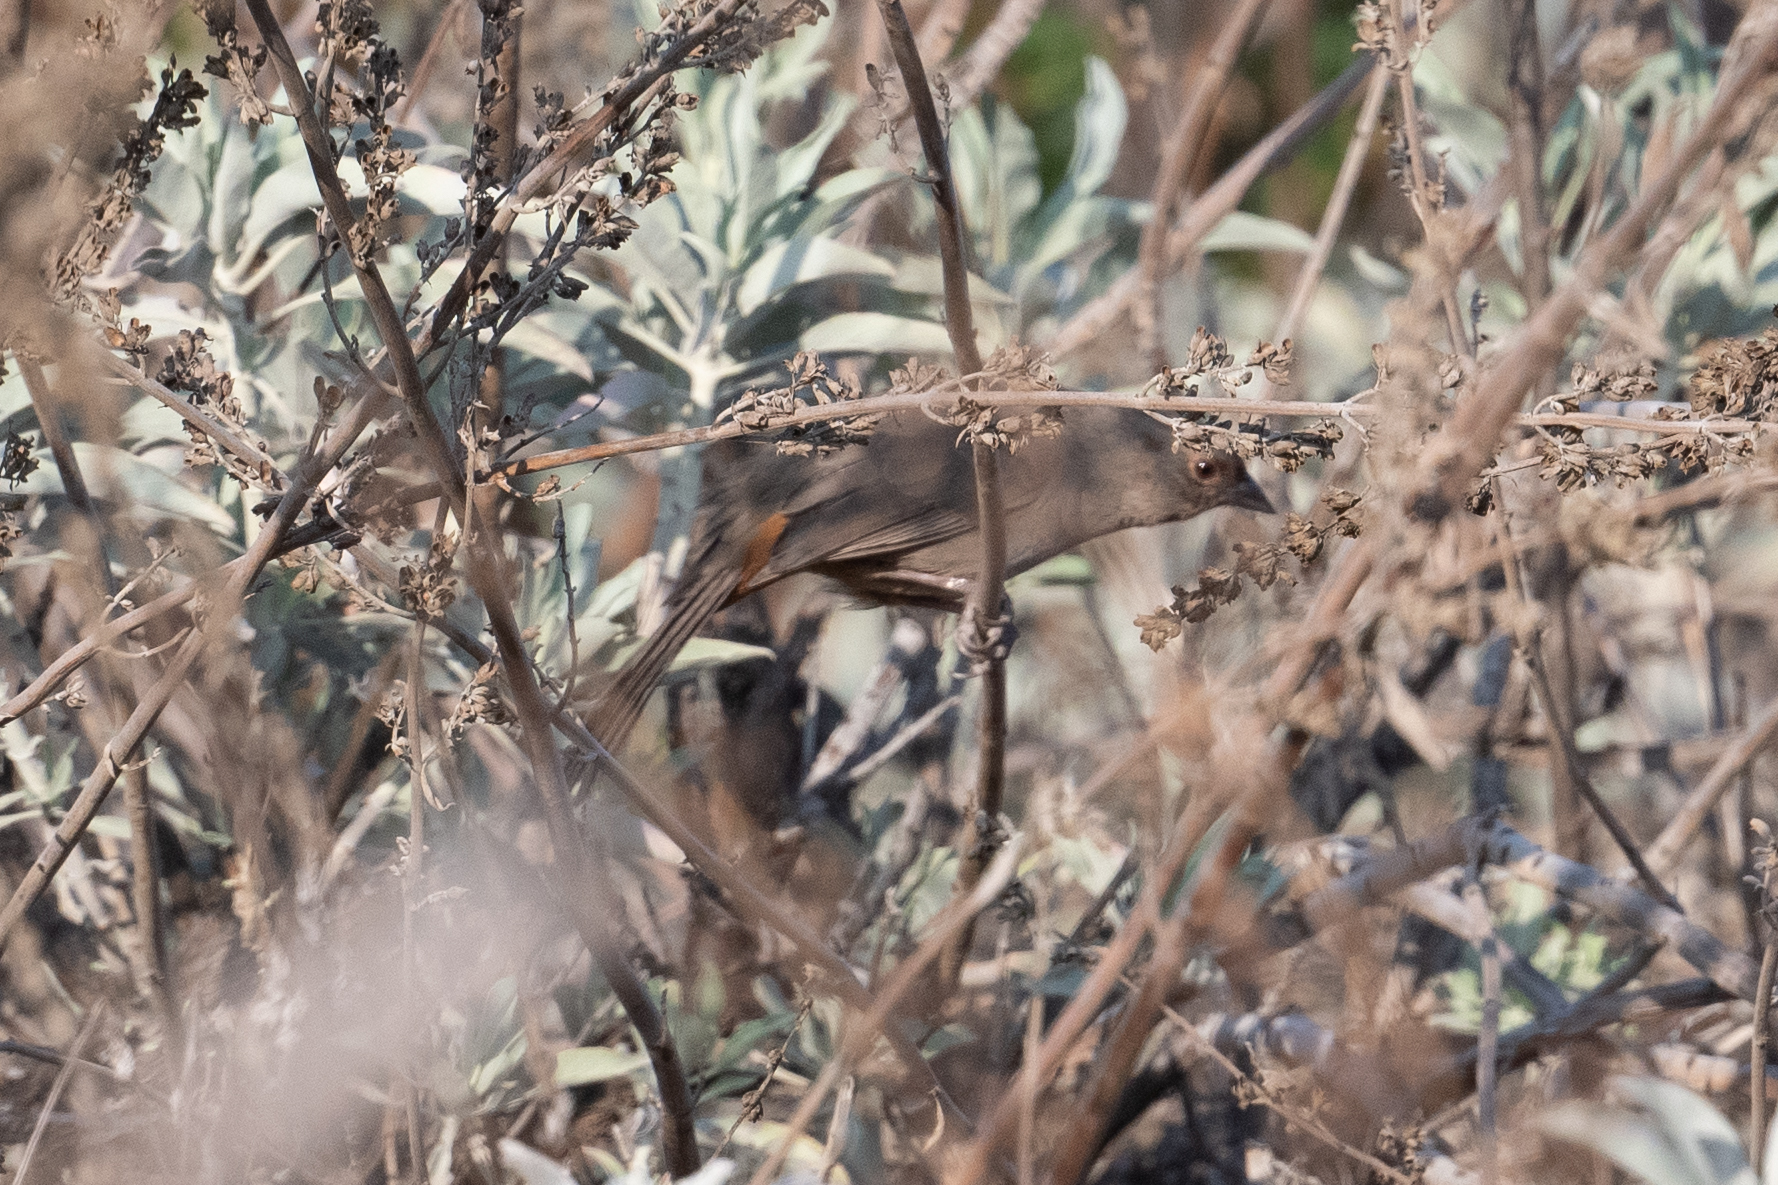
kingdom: Animalia
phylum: Chordata
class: Aves
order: Passeriformes
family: Passerellidae
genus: Melozone
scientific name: Melozone crissalis
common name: California towhee
